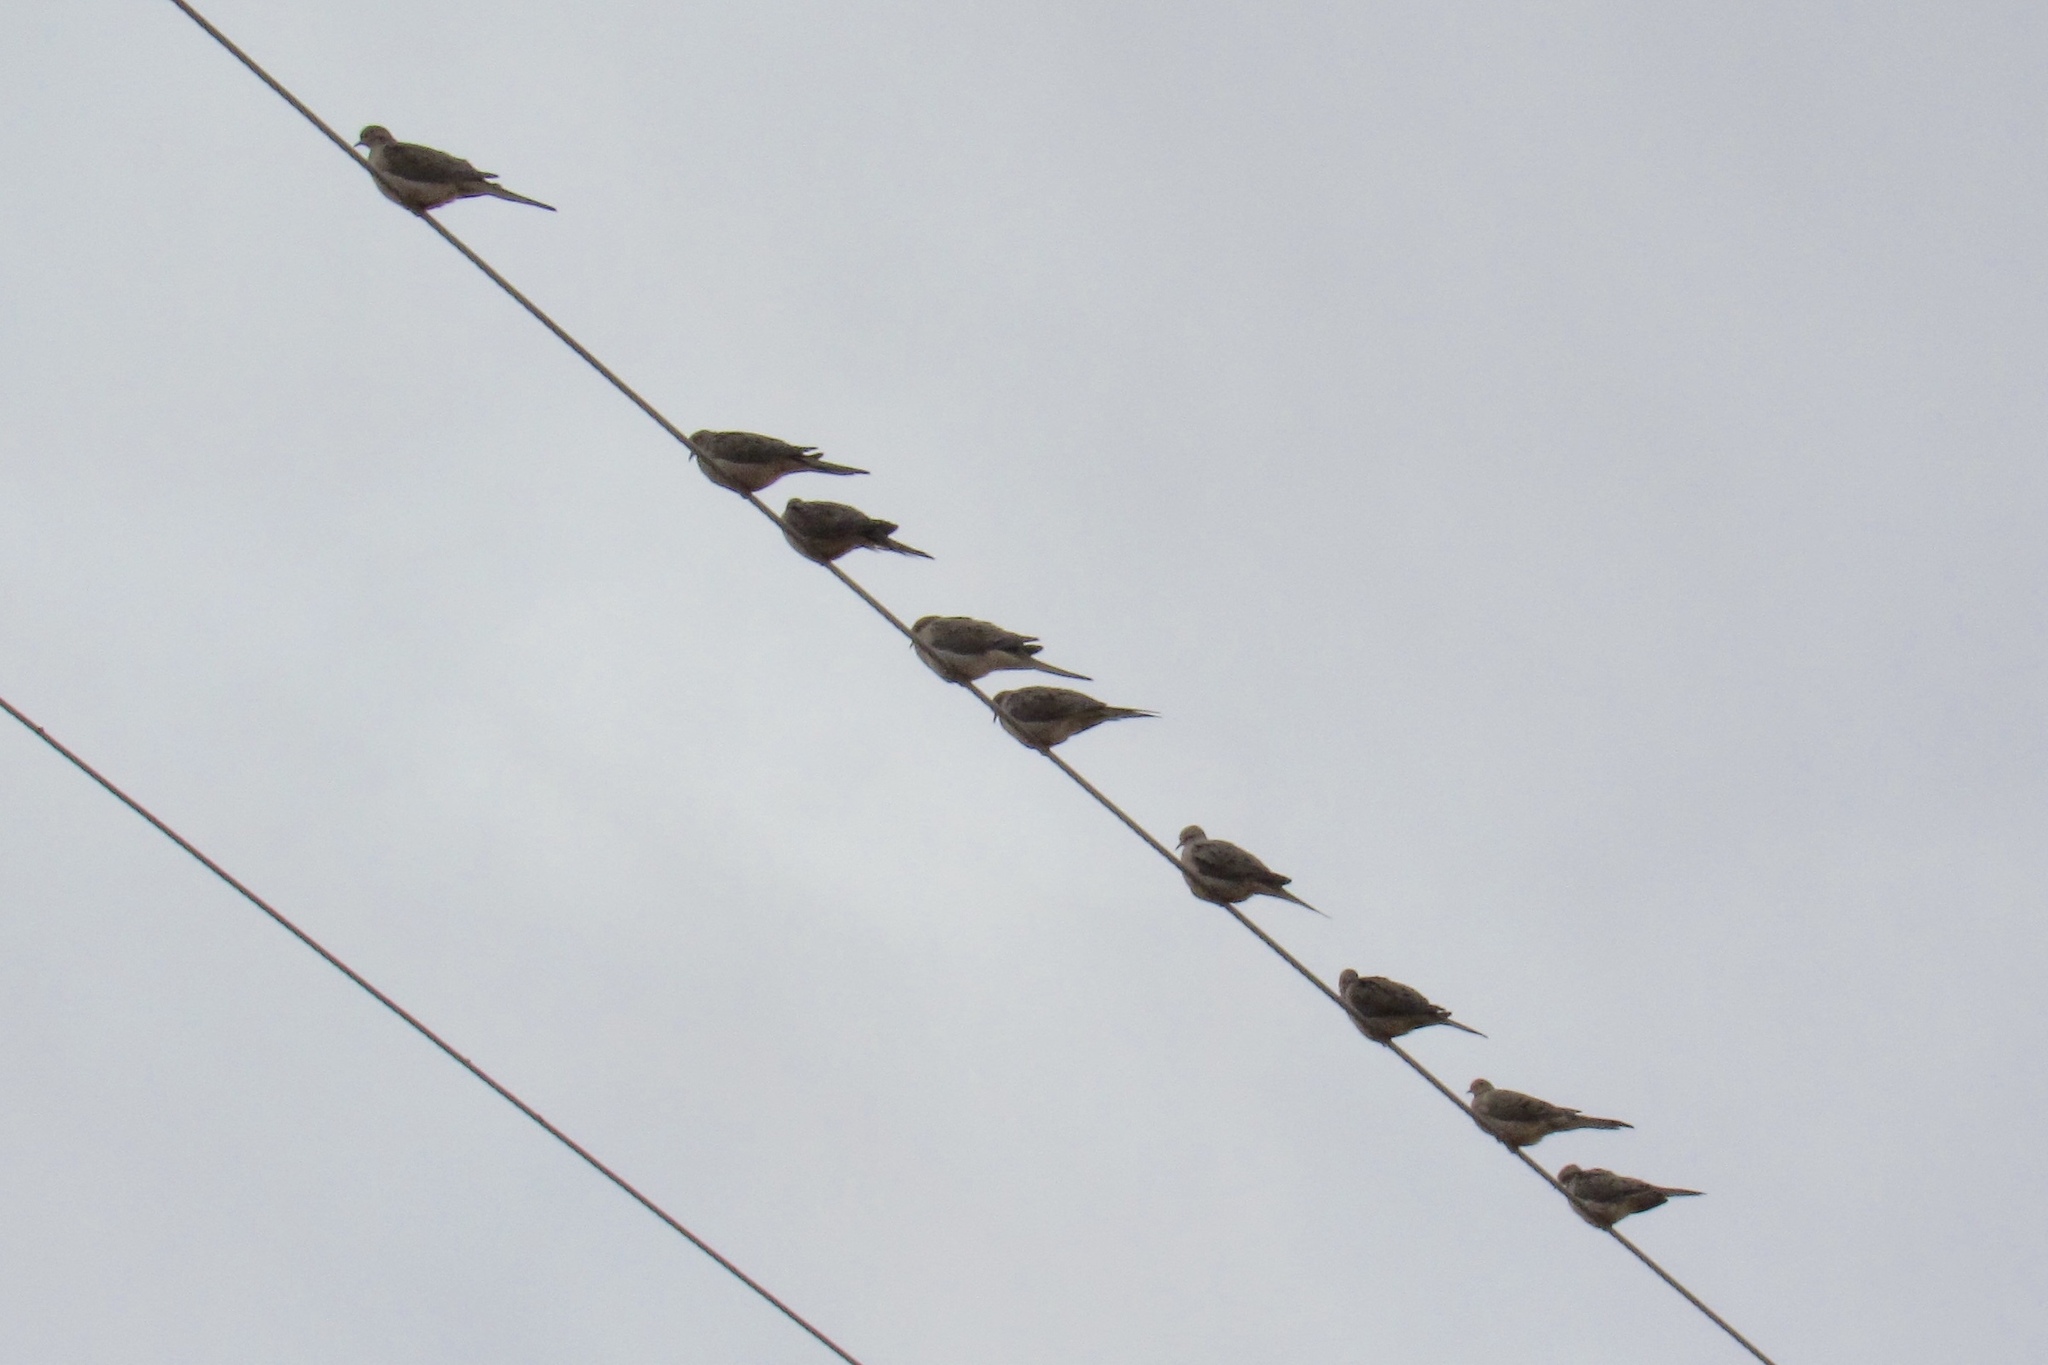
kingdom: Animalia
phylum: Chordata
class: Aves
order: Columbiformes
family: Columbidae
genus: Zenaida
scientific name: Zenaida macroura
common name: Mourning dove
